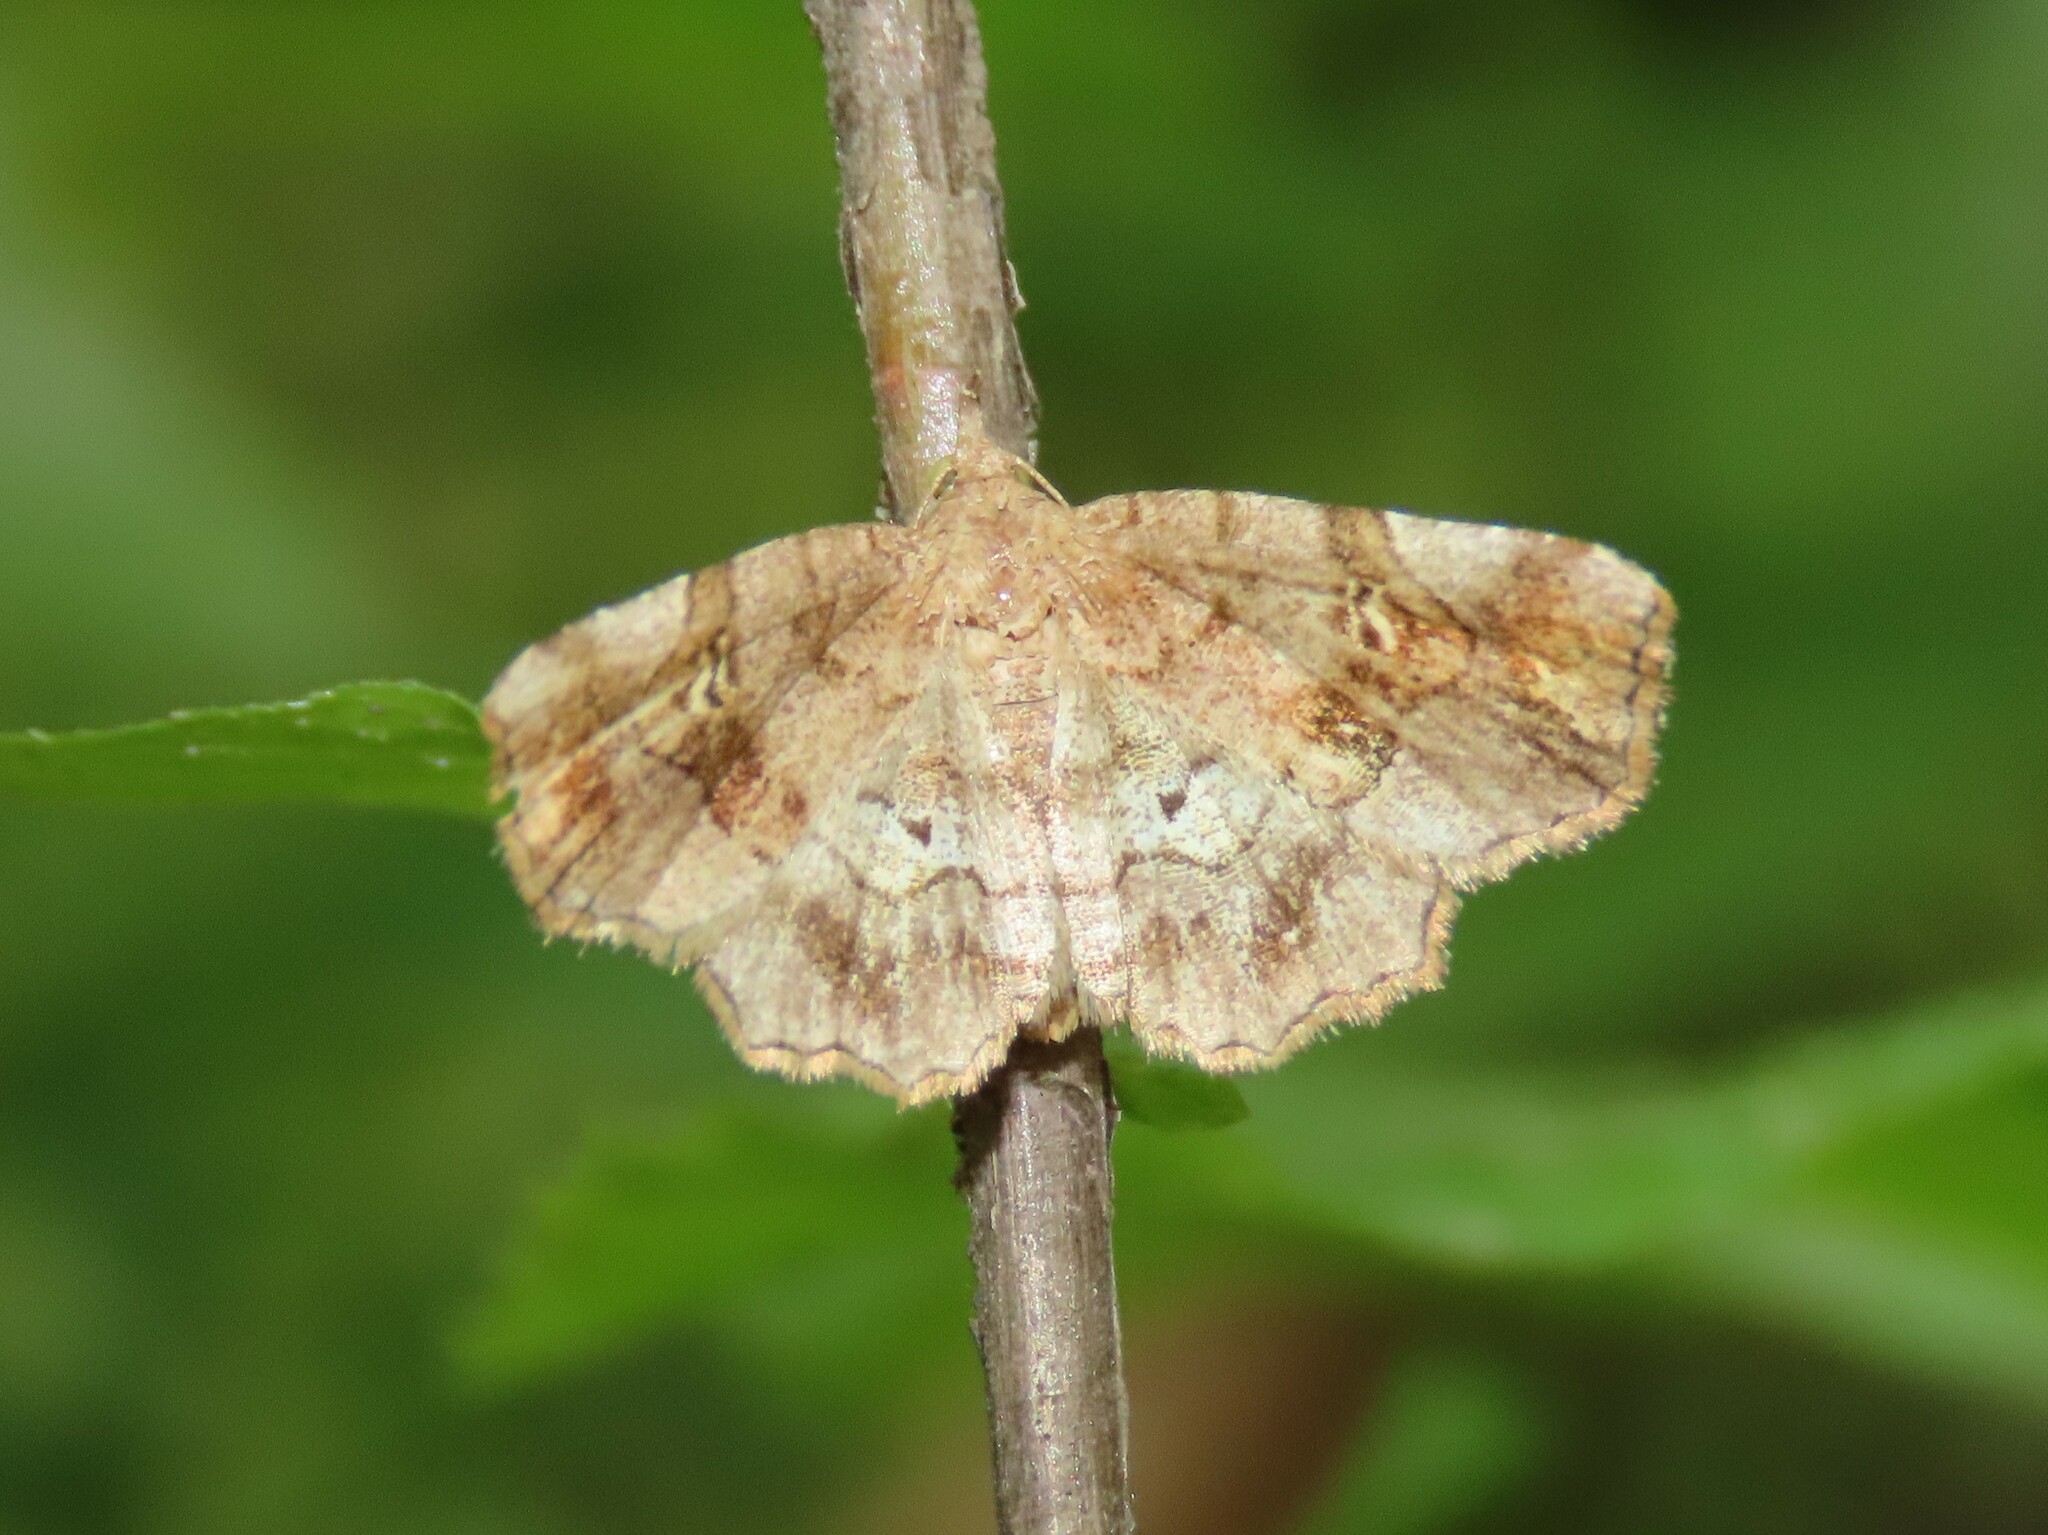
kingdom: Animalia
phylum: Arthropoda
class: Insecta
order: Lepidoptera
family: Erebidae
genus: Pangrapta
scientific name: Pangrapta decoralis
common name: Decorated owlet
